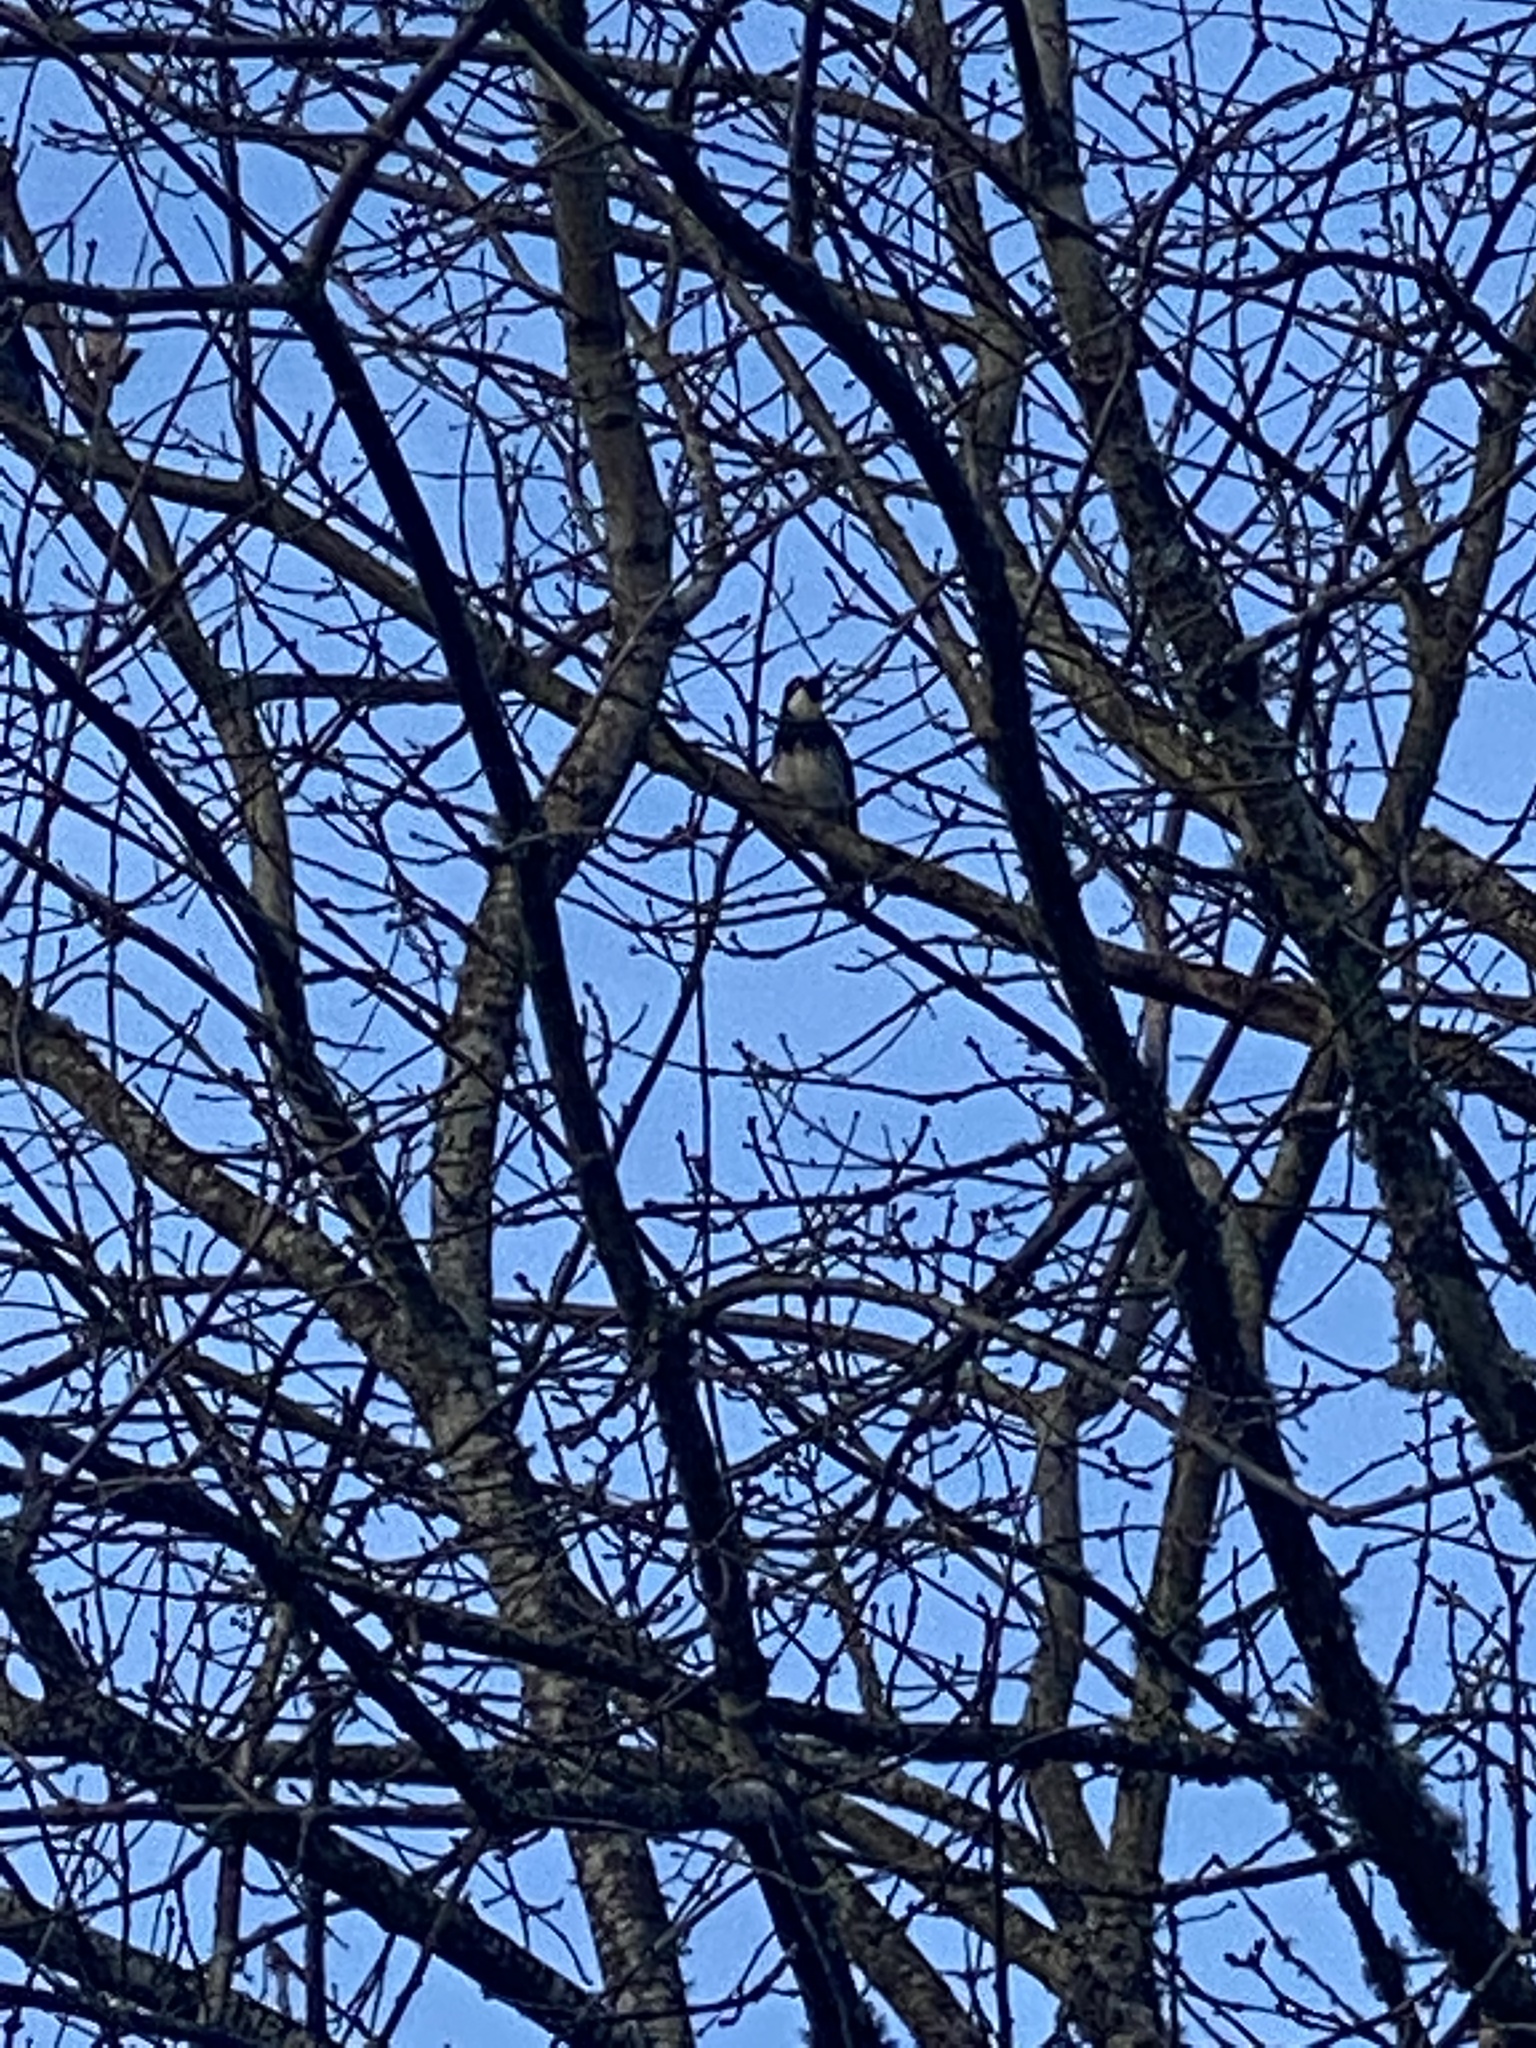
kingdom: Animalia
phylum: Chordata
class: Aves
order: Piciformes
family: Picidae
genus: Melanerpes
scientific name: Melanerpes formicivorus
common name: Acorn woodpecker
